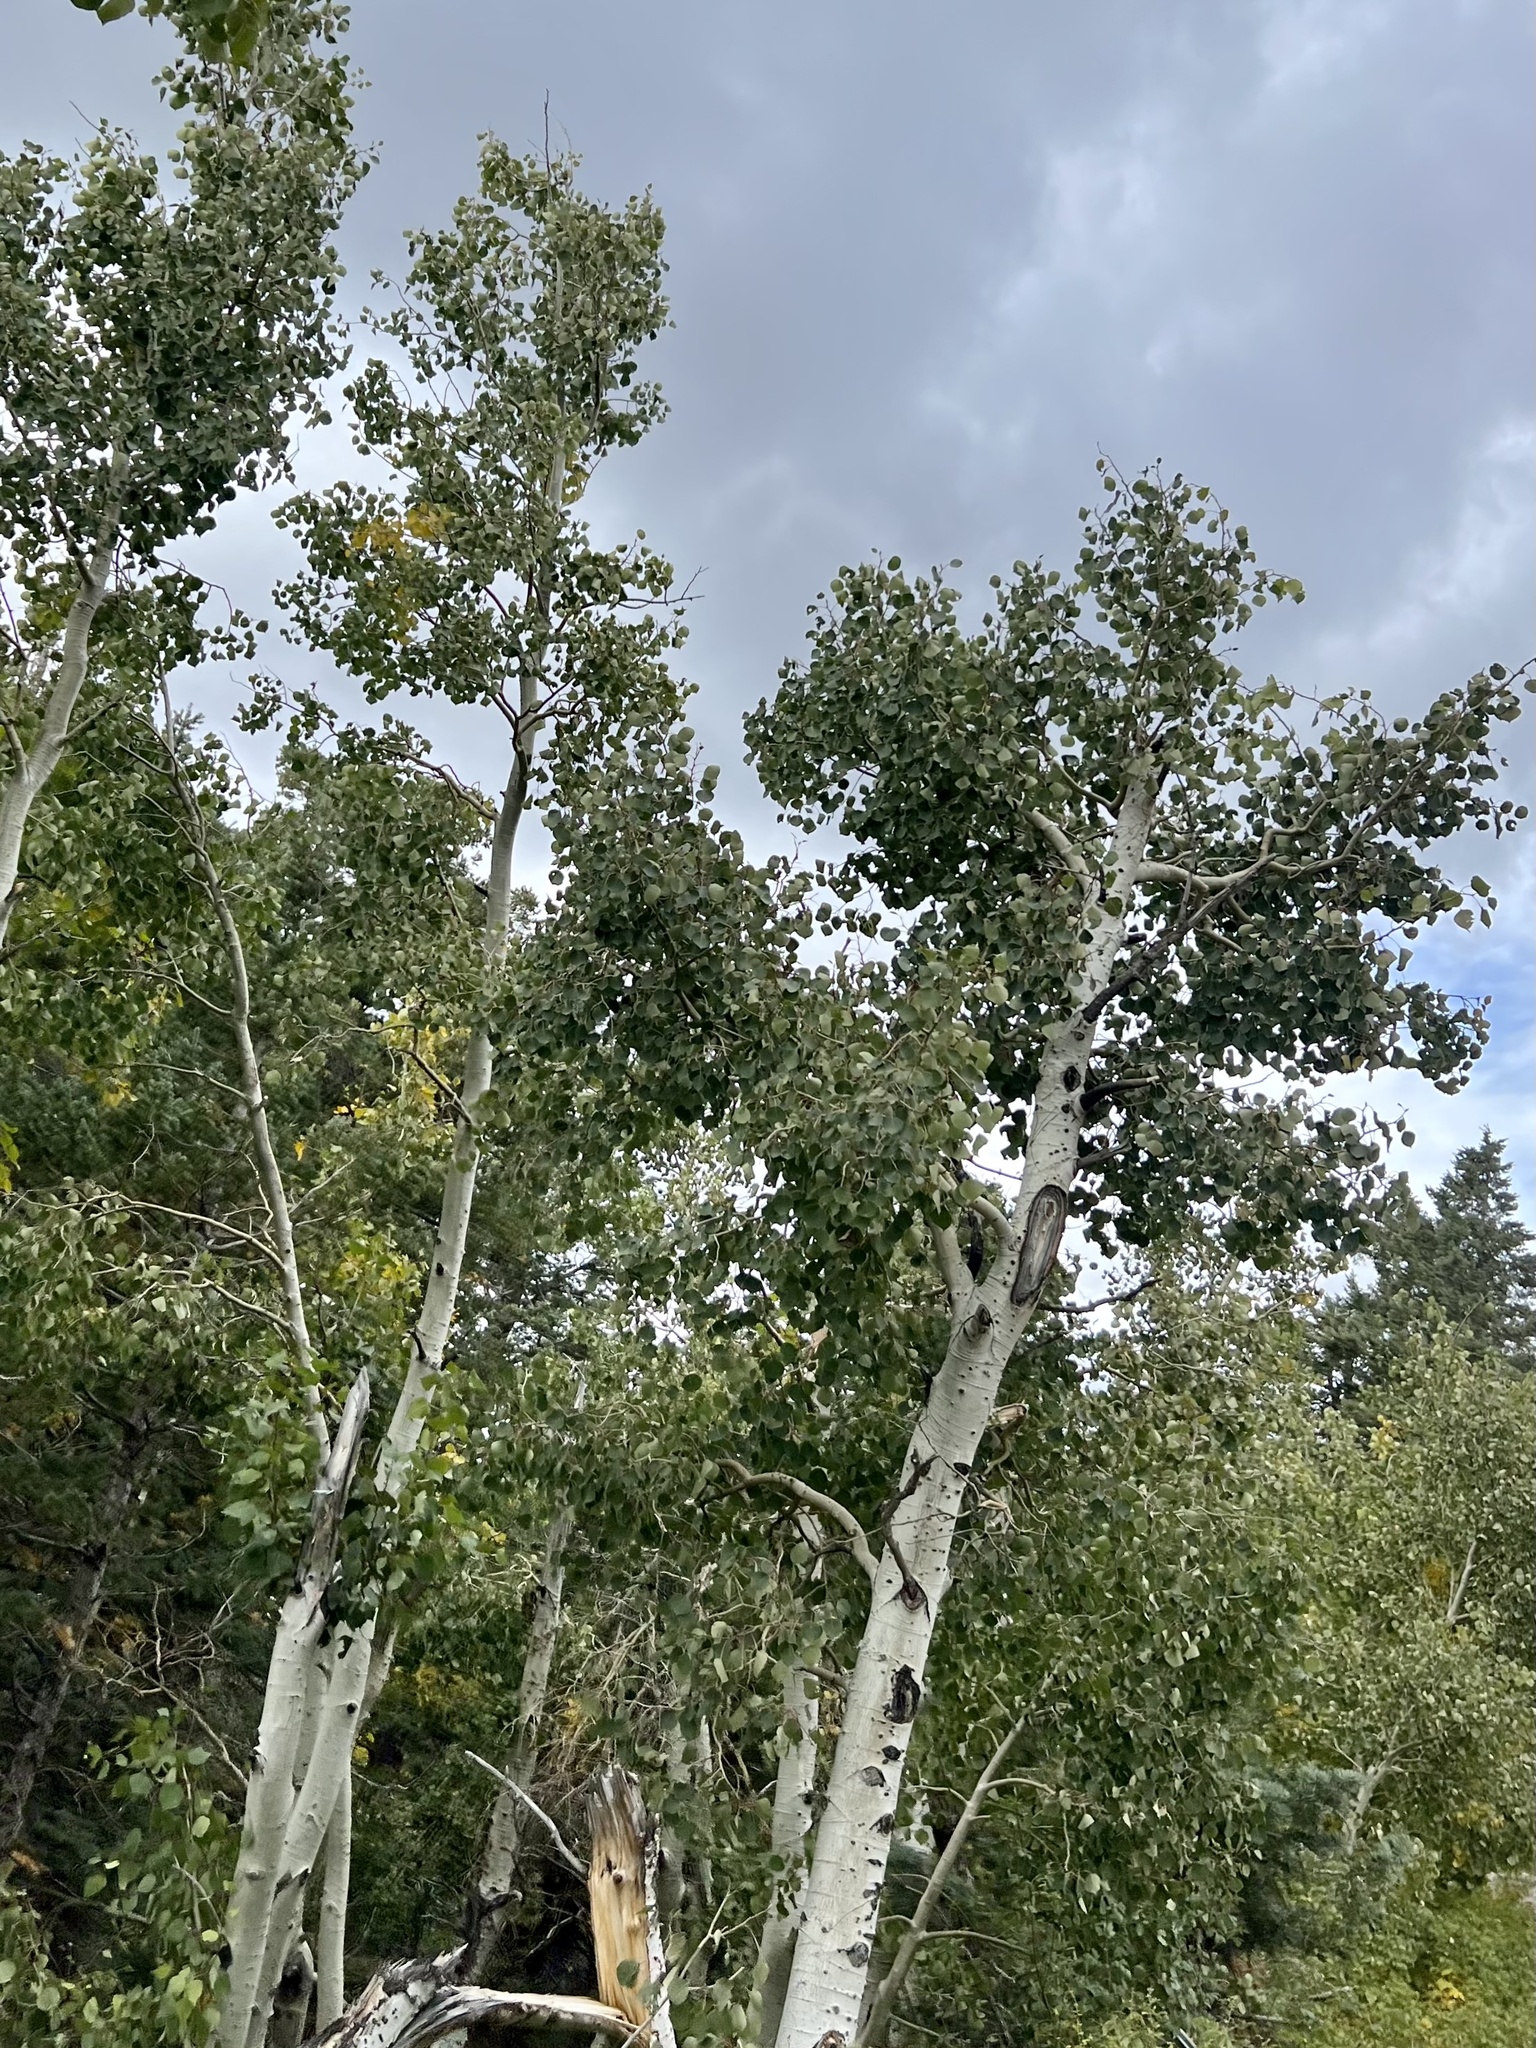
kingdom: Plantae
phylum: Tracheophyta
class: Magnoliopsida
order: Malpighiales
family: Salicaceae
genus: Populus
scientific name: Populus tremuloides
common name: Quaking aspen
